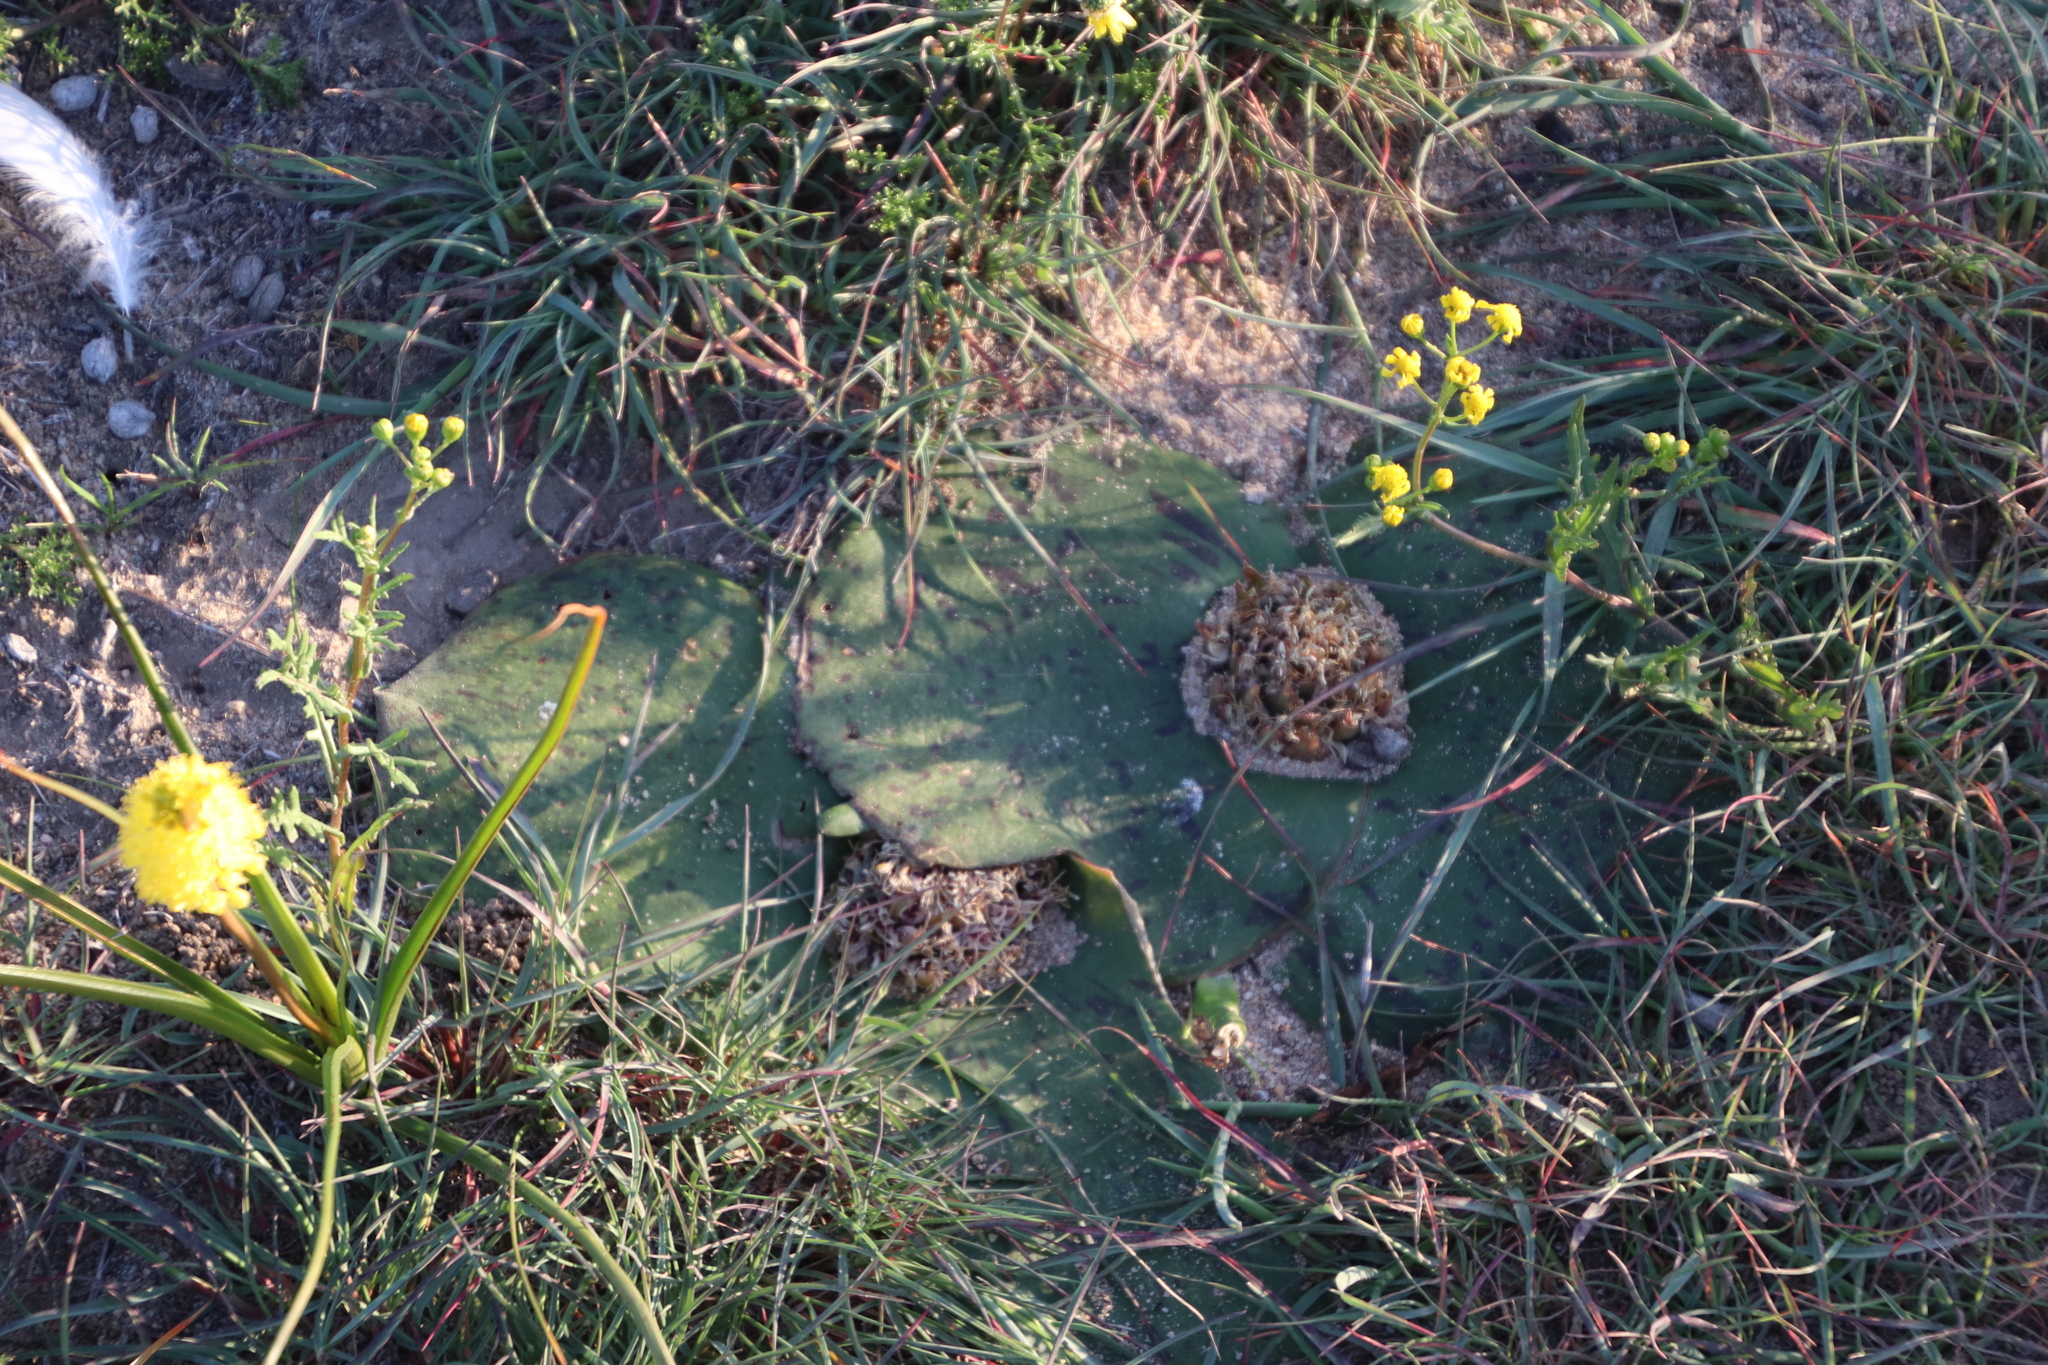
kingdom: Plantae
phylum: Tracheophyta
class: Liliopsida
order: Asparagales
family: Asparagaceae
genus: Massonia
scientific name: Massonia depressa
